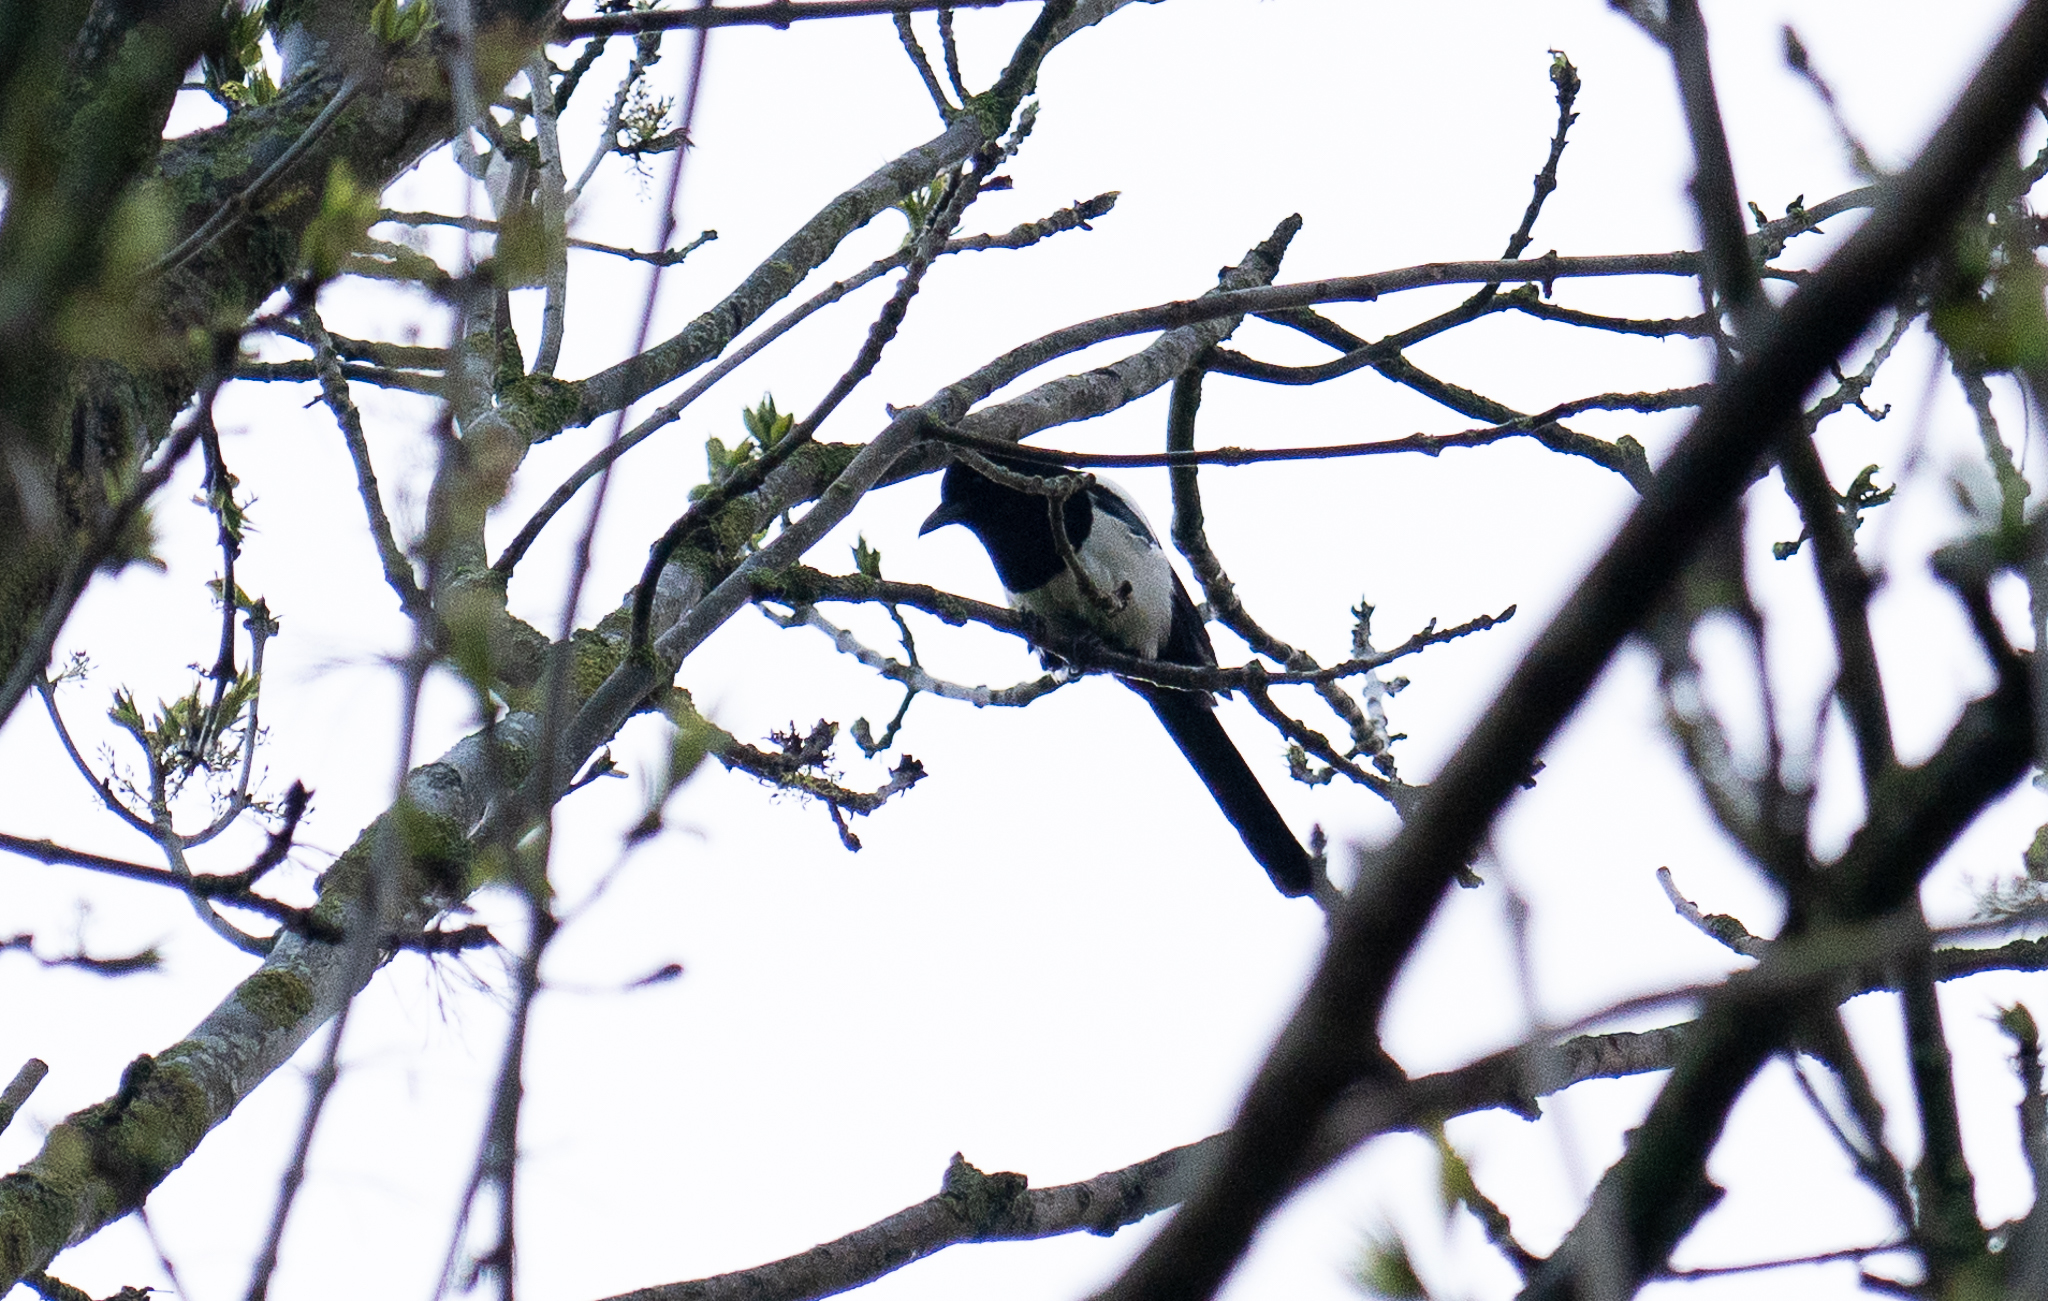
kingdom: Animalia
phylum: Chordata
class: Aves
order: Passeriformes
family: Corvidae
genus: Pica
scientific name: Pica pica
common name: Eurasian magpie
